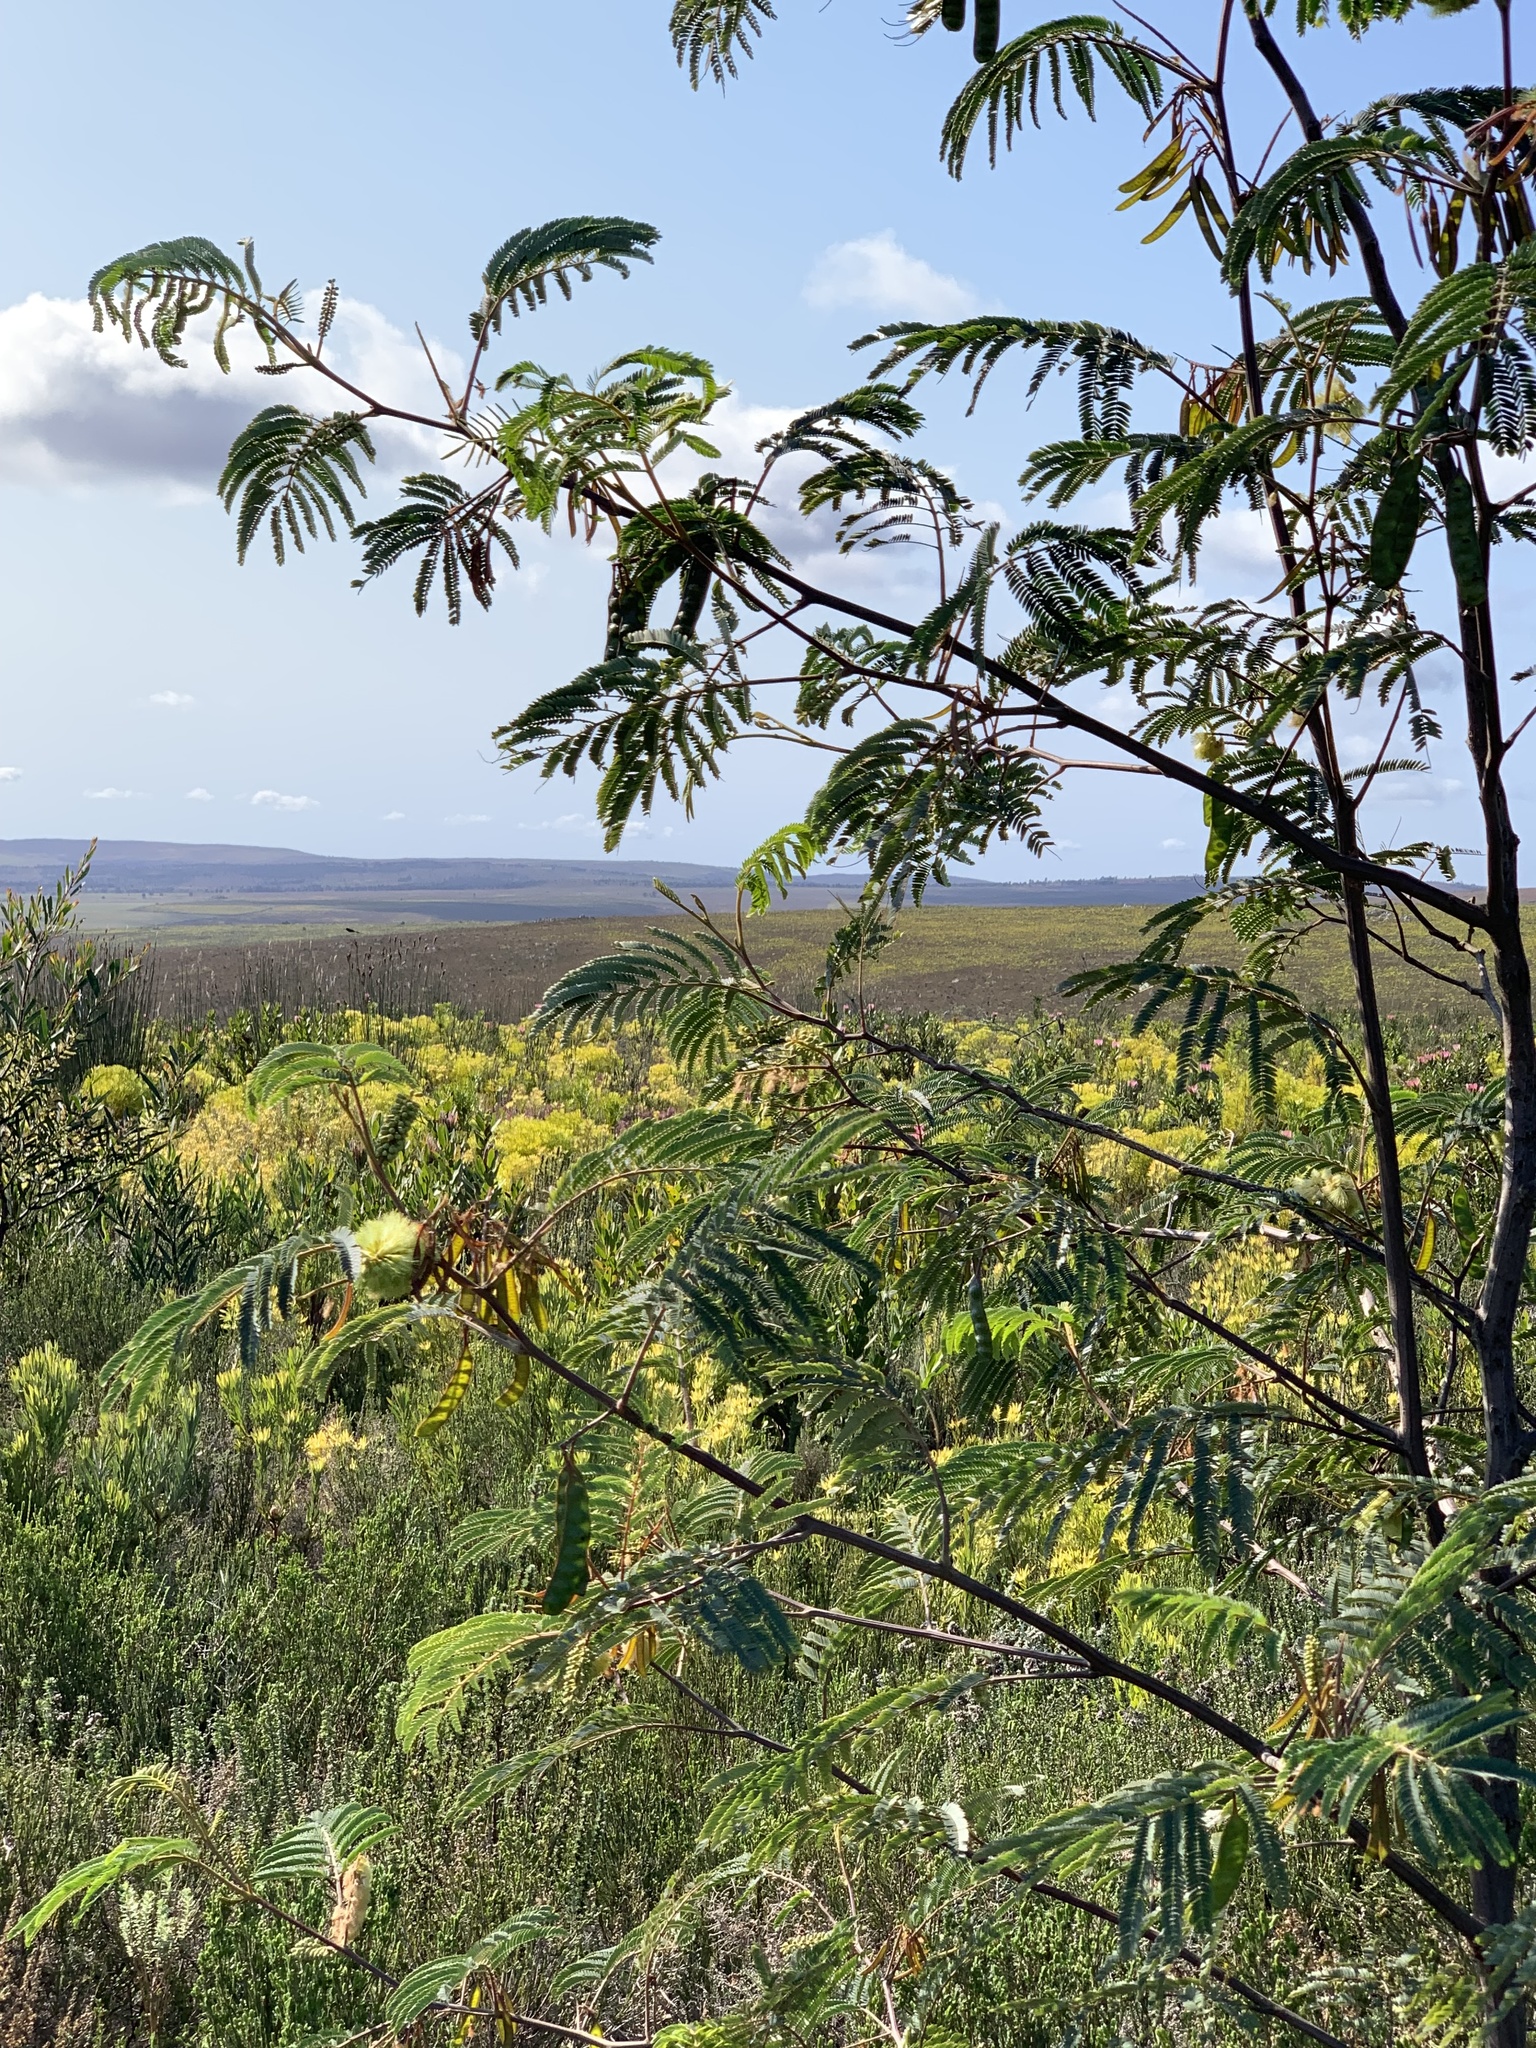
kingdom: Plantae
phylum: Tracheophyta
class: Magnoliopsida
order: Fabales
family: Fabaceae
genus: Paraserianthes
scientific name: Paraserianthes lophantha
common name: Plume albizia
